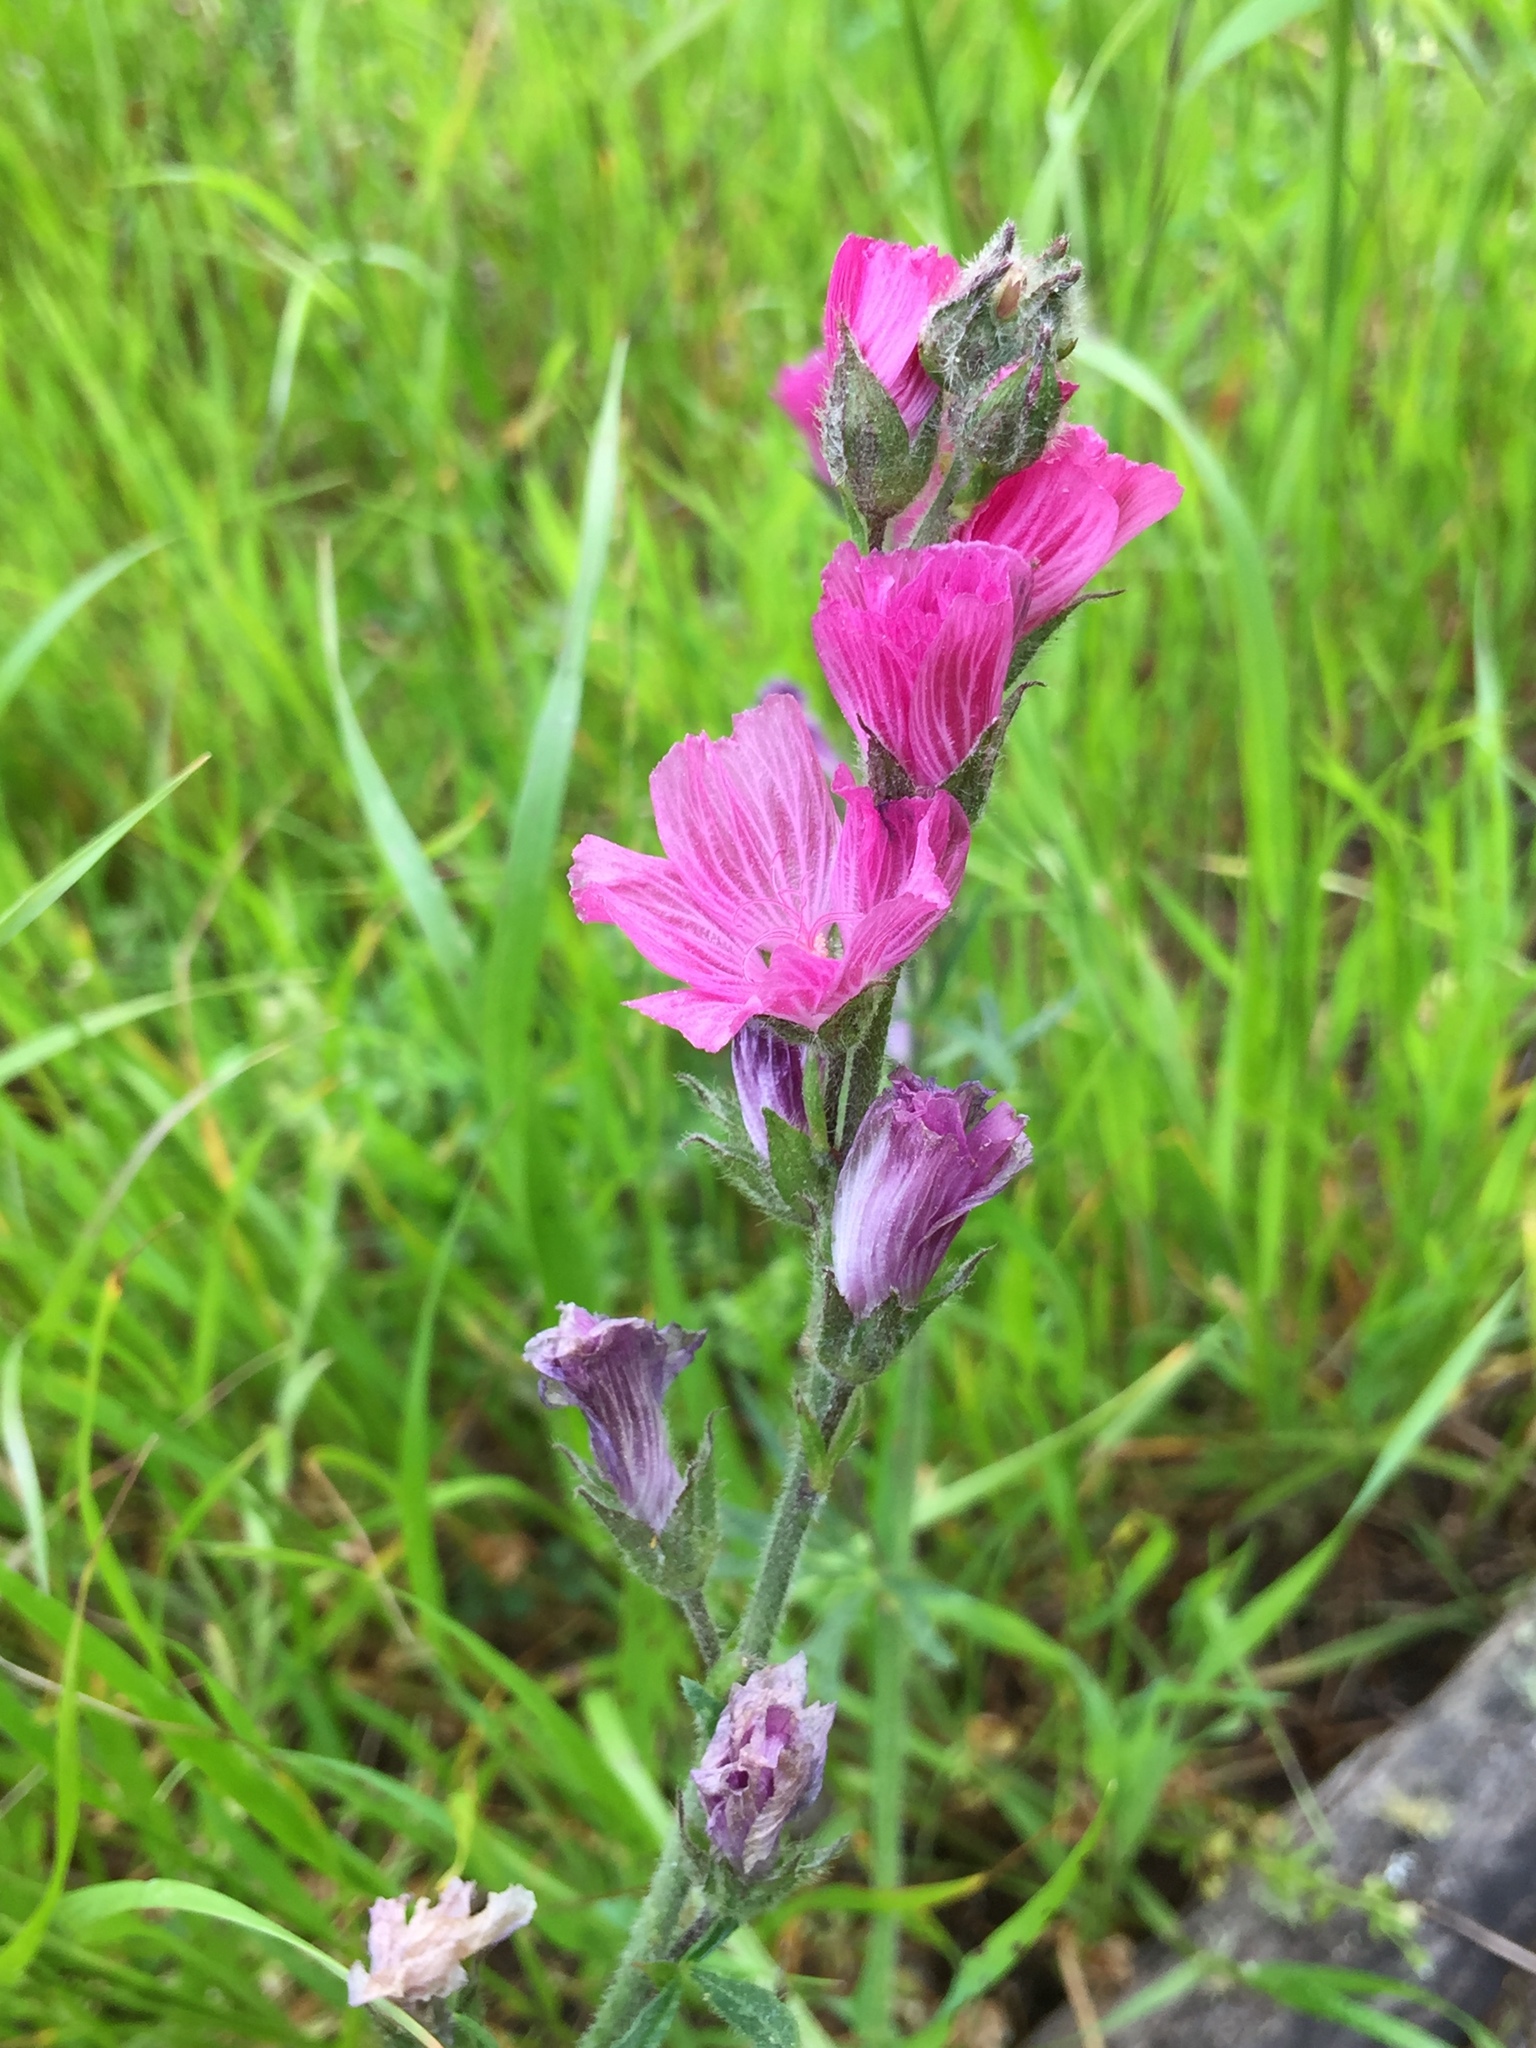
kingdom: Plantae
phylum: Tracheophyta
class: Magnoliopsida
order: Malvales
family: Malvaceae
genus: Sidalcea
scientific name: Sidalcea malviflora
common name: Greek mallow
